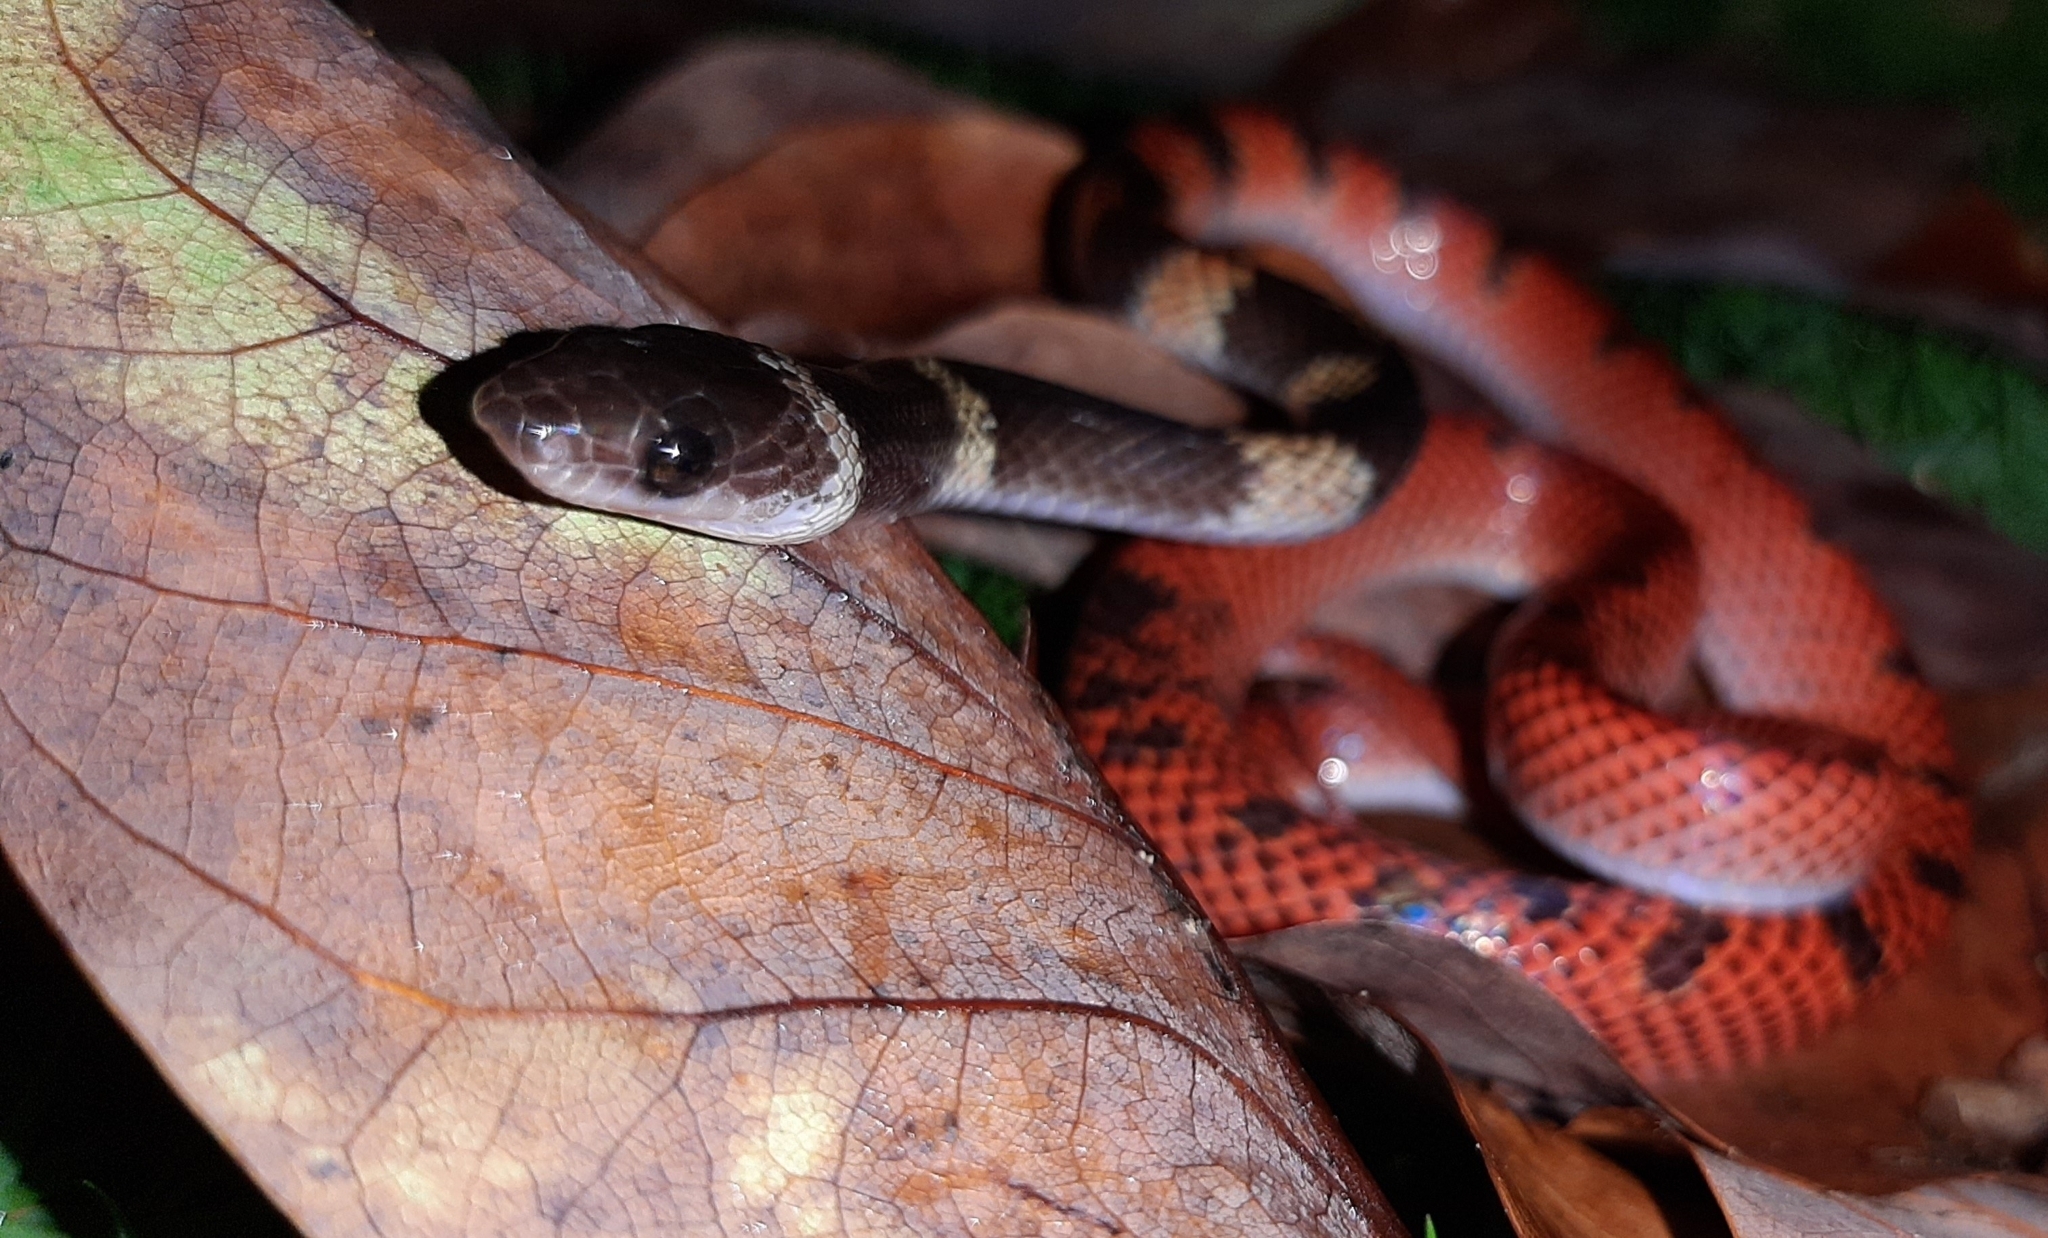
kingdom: Animalia
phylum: Chordata
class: Squamata
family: Colubridae
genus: Oxyrhopus
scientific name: Oxyrhopus petolarius
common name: Forest flame snake
